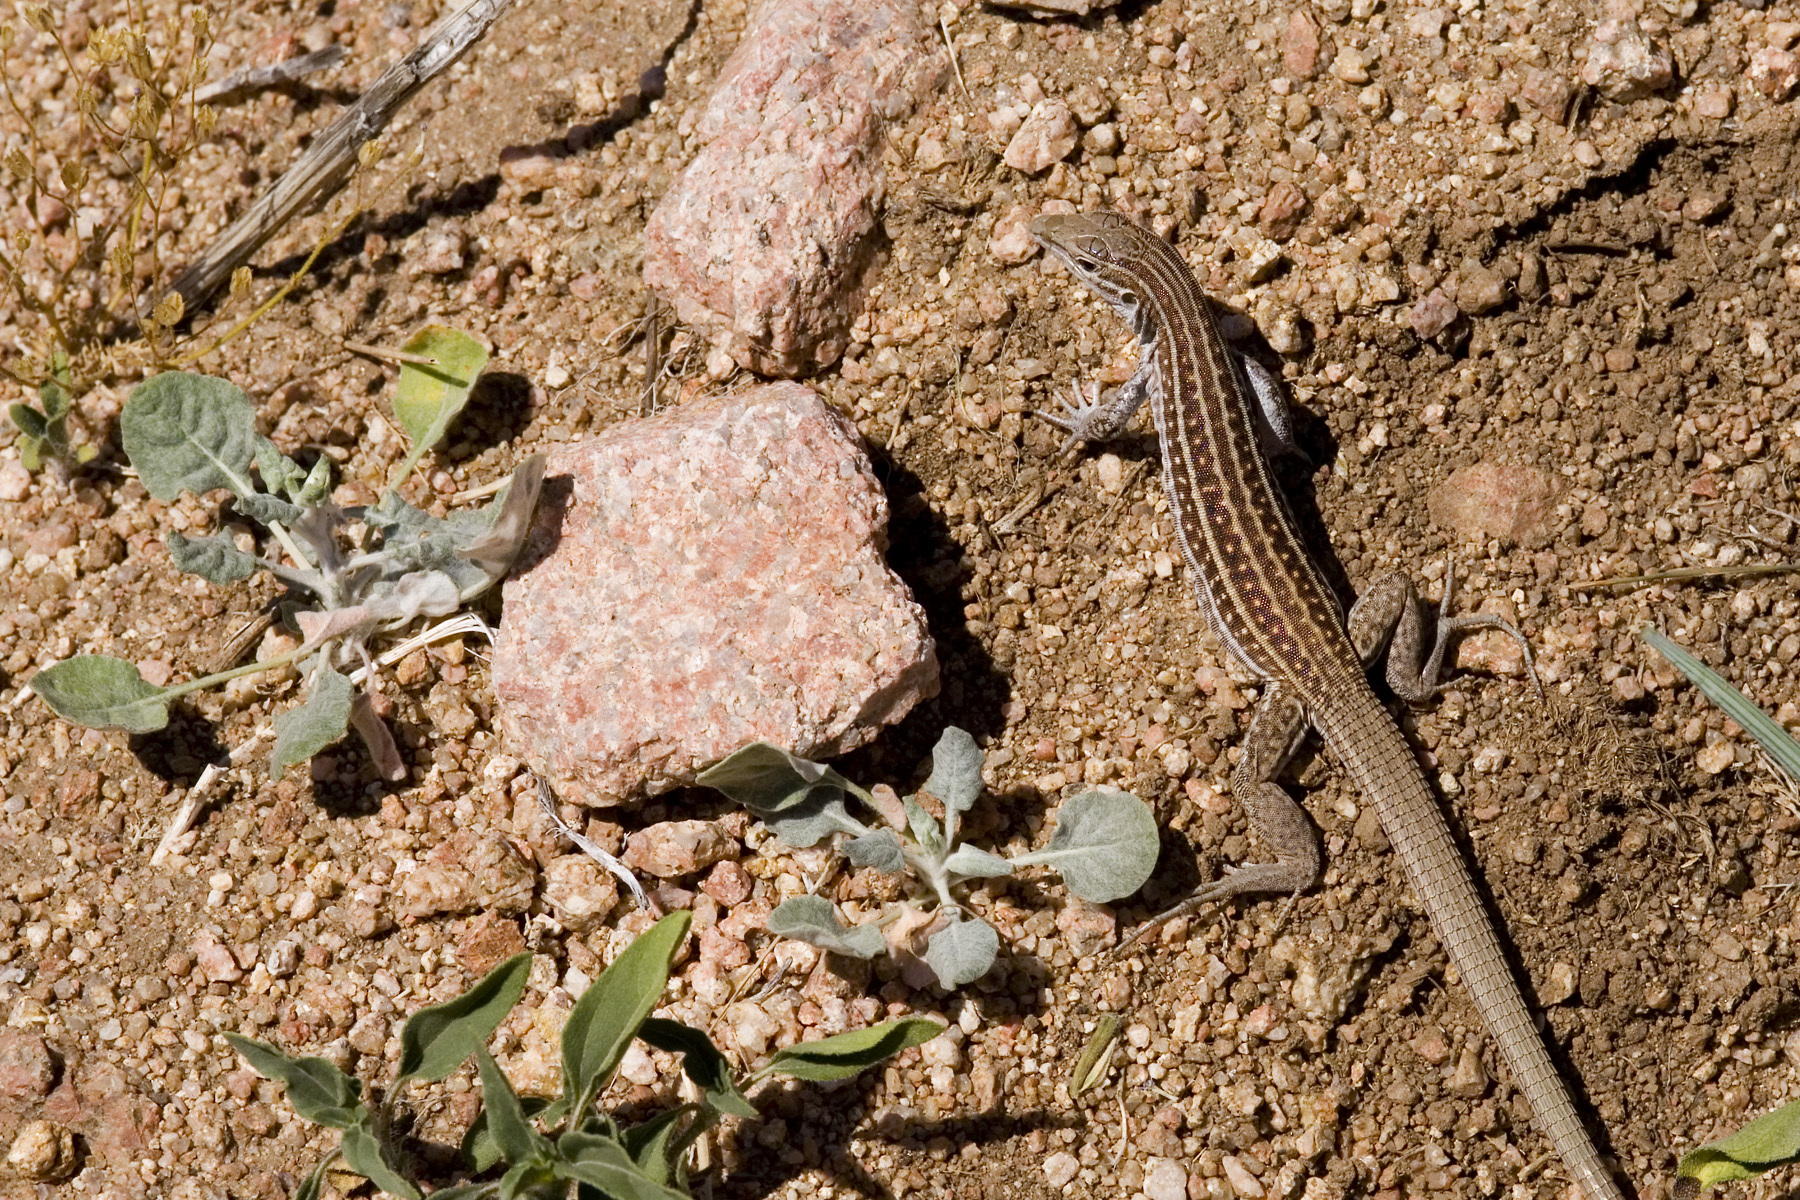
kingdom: Animalia
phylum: Chordata
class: Squamata
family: Teiidae
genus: Aspidoscelis
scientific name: Aspidoscelis exsanguis
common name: Chihuahuan spotted whiptail
